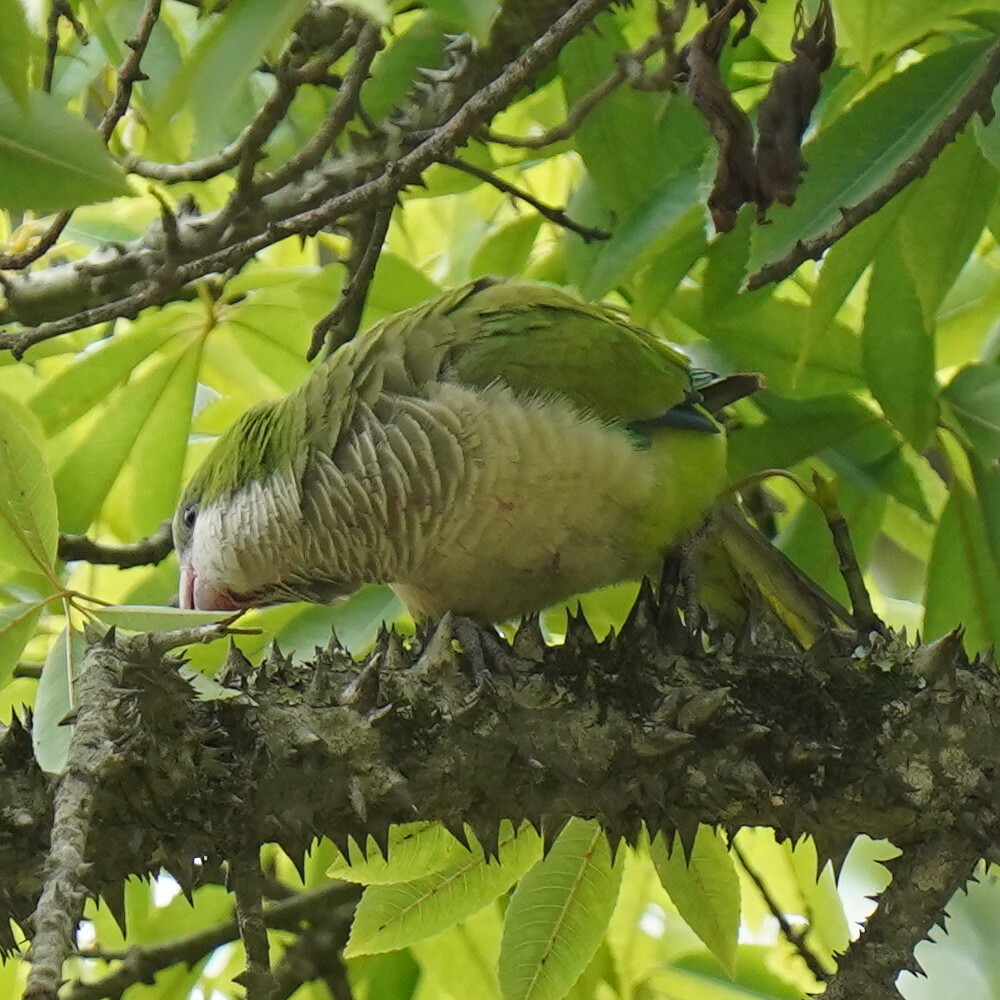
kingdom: Animalia
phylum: Chordata
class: Aves
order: Psittaciformes
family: Psittacidae
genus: Myiopsitta
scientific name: Myiopsitta monachus
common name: Monk parakeet
